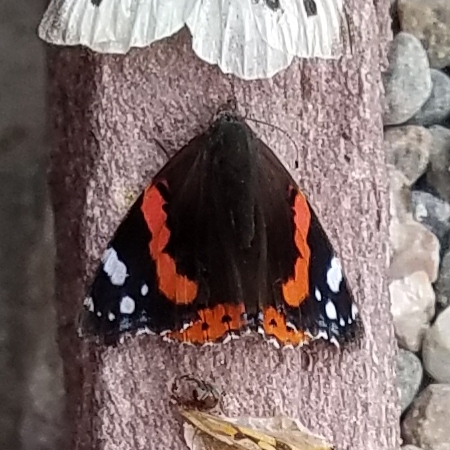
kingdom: Animalia
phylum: Arthropoda
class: Insecta
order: Lepidoptera
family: Nymphalidae
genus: Vanessa
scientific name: Vanessa atalanta
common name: Red admiral
